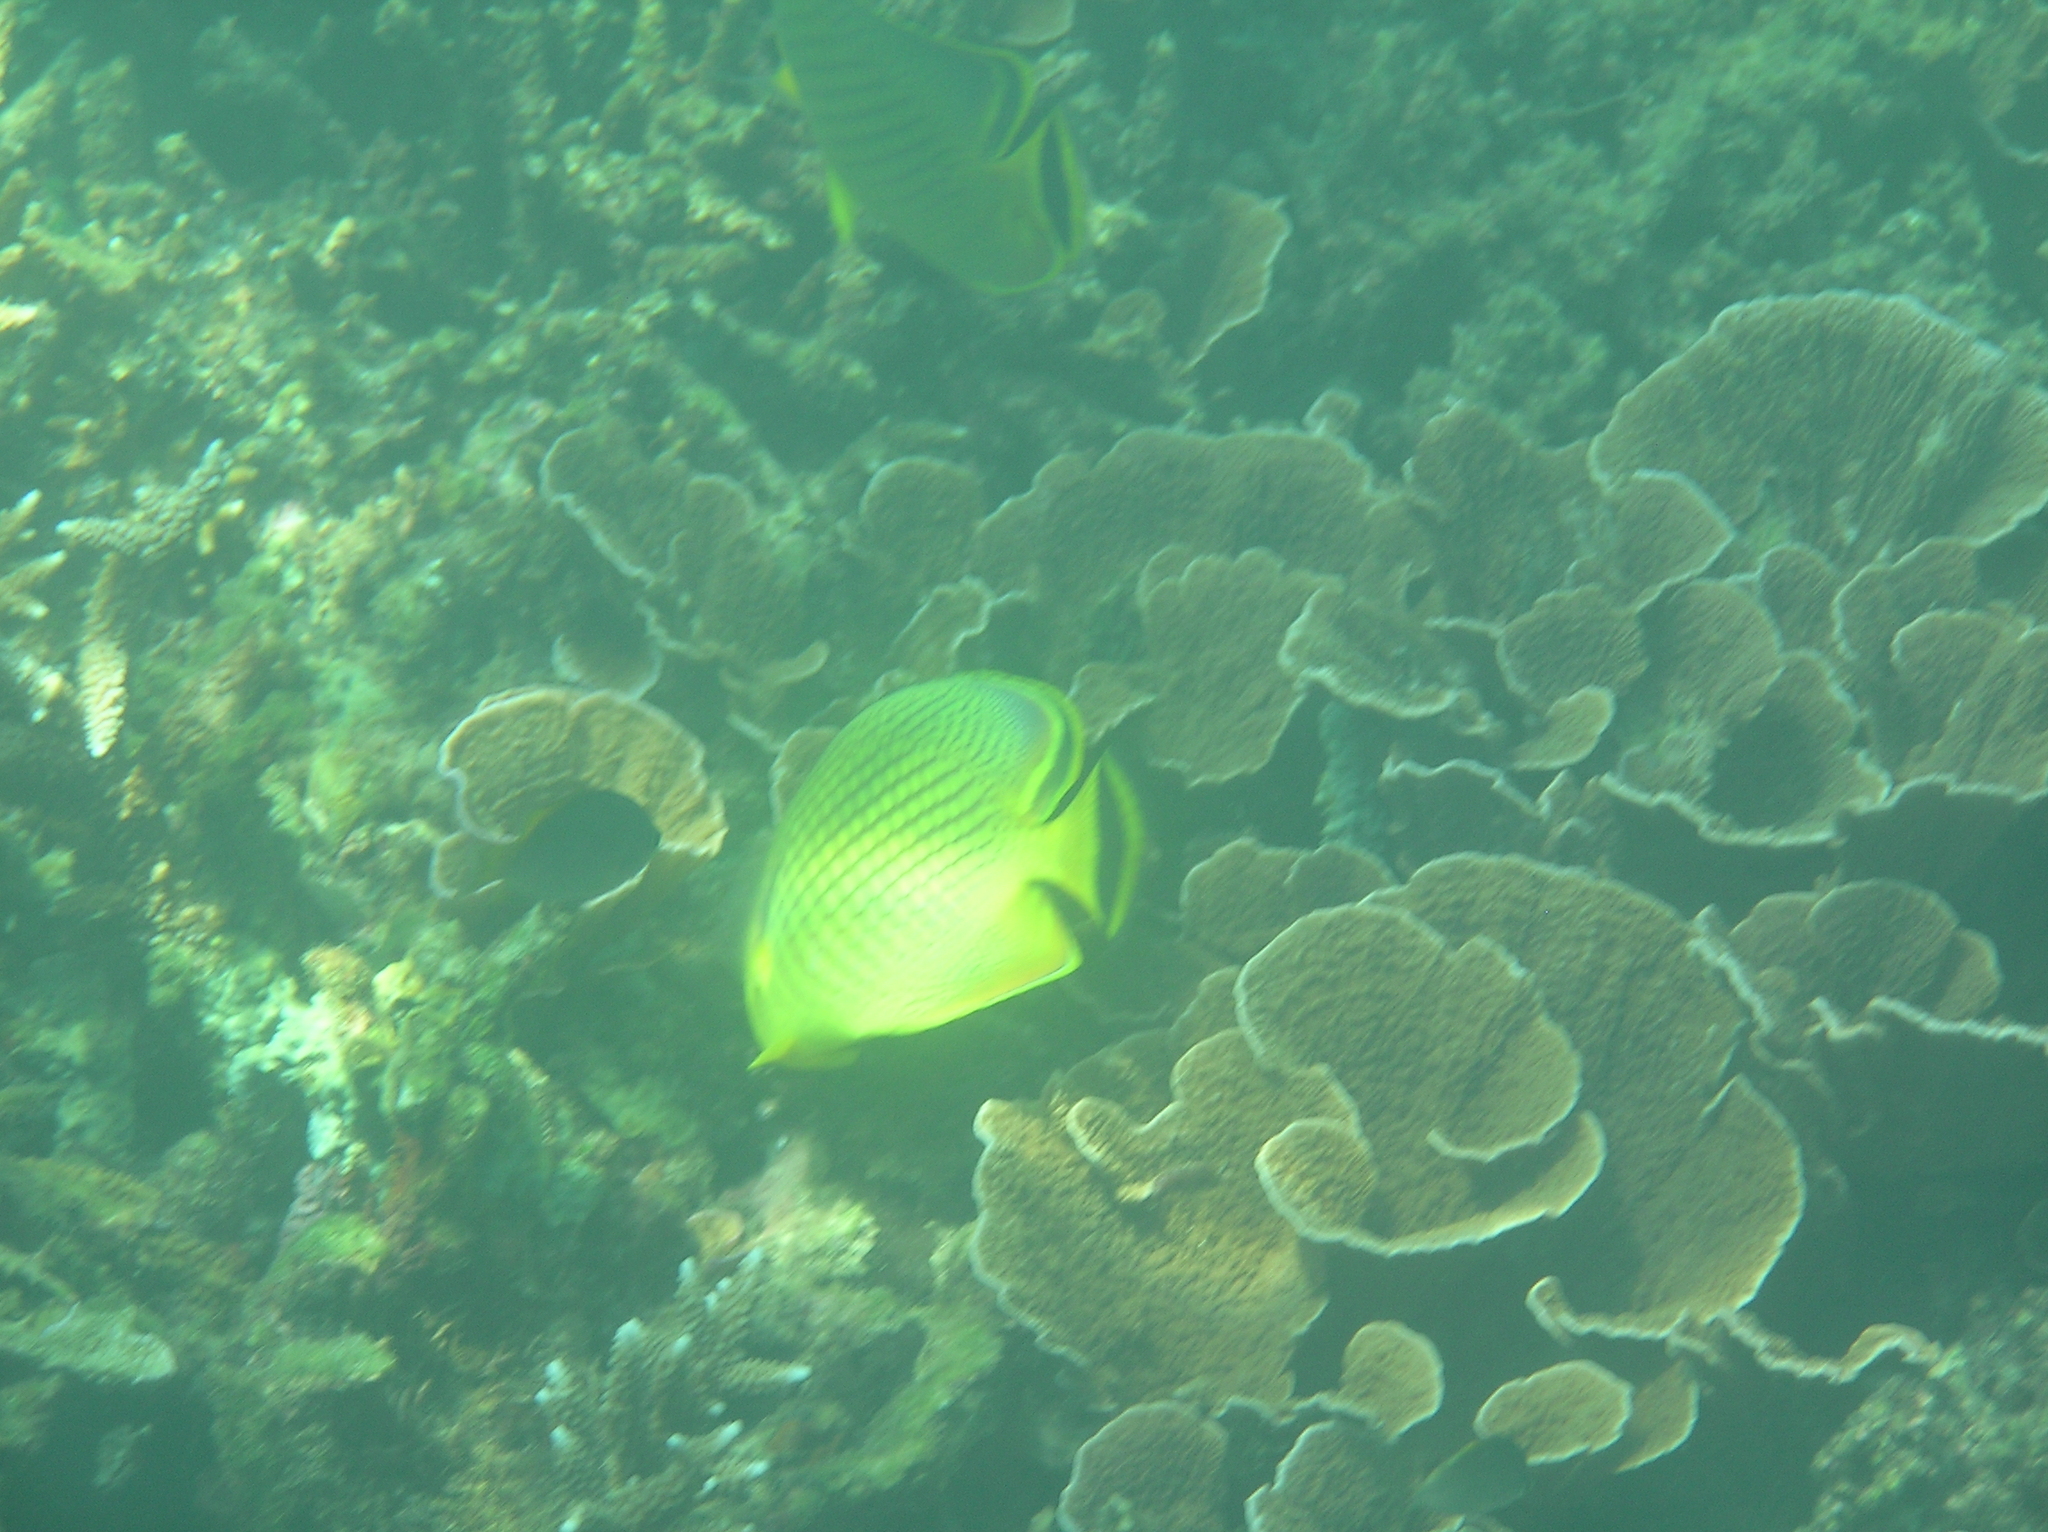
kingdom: Animalia
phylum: Chordata
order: Perciformes
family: Chaetodontidae
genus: Chaetodon
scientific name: Chaetodon rafflesii
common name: Latticed butterflyfish
